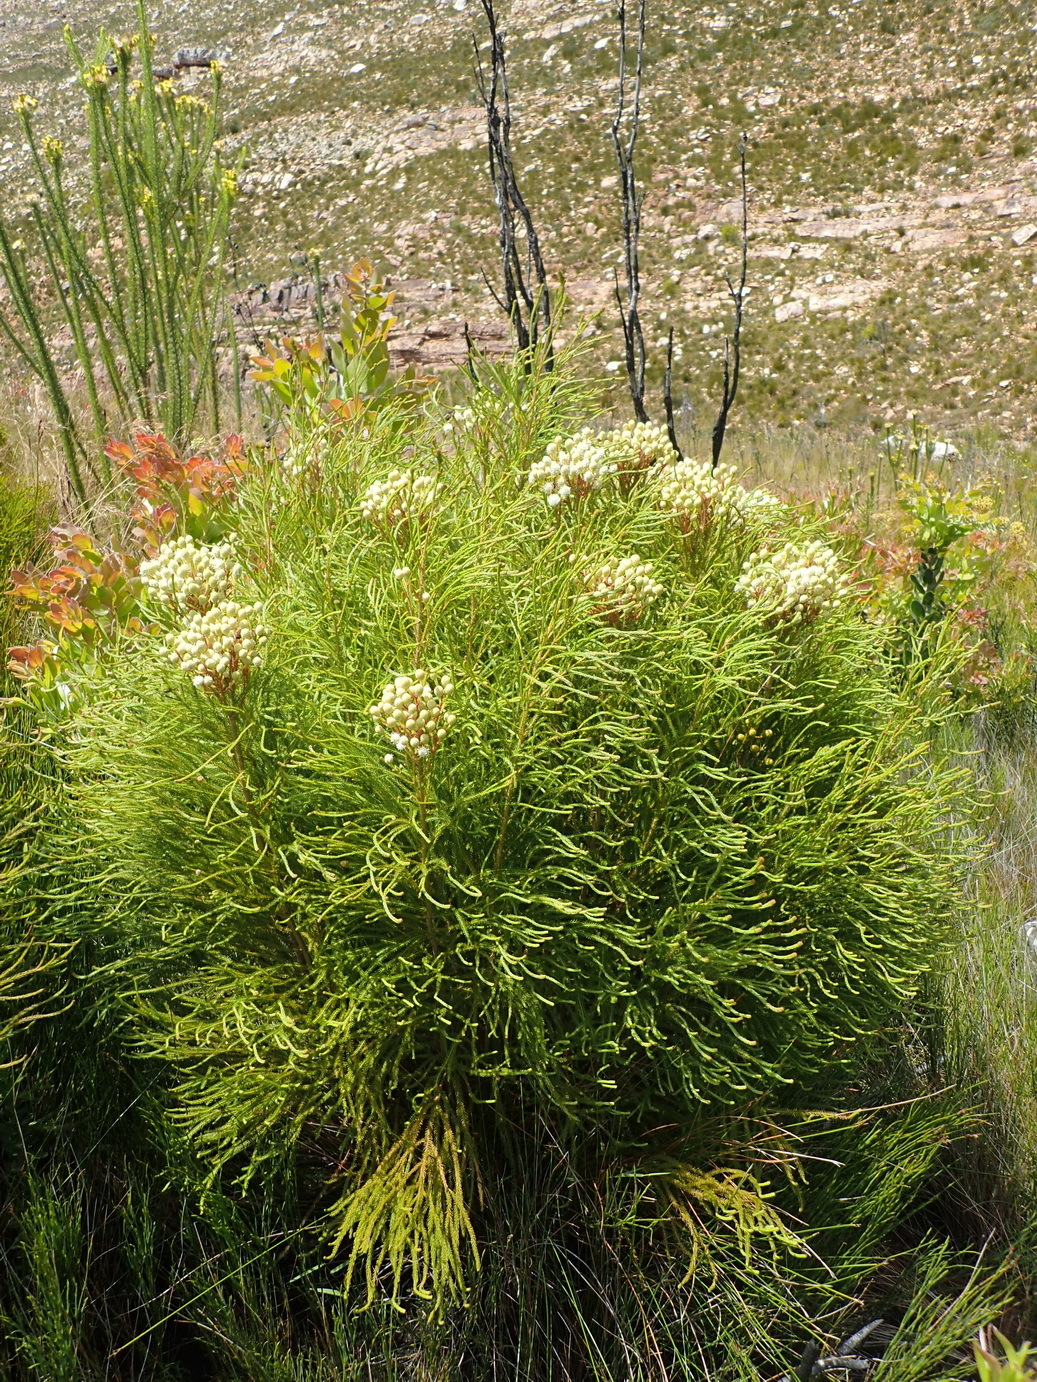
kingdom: Plantae
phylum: Tracheophyta
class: Magnoliopsida
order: Bruniales
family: Bruniaceae
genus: Berzelia
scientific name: Berzelia intermedia
